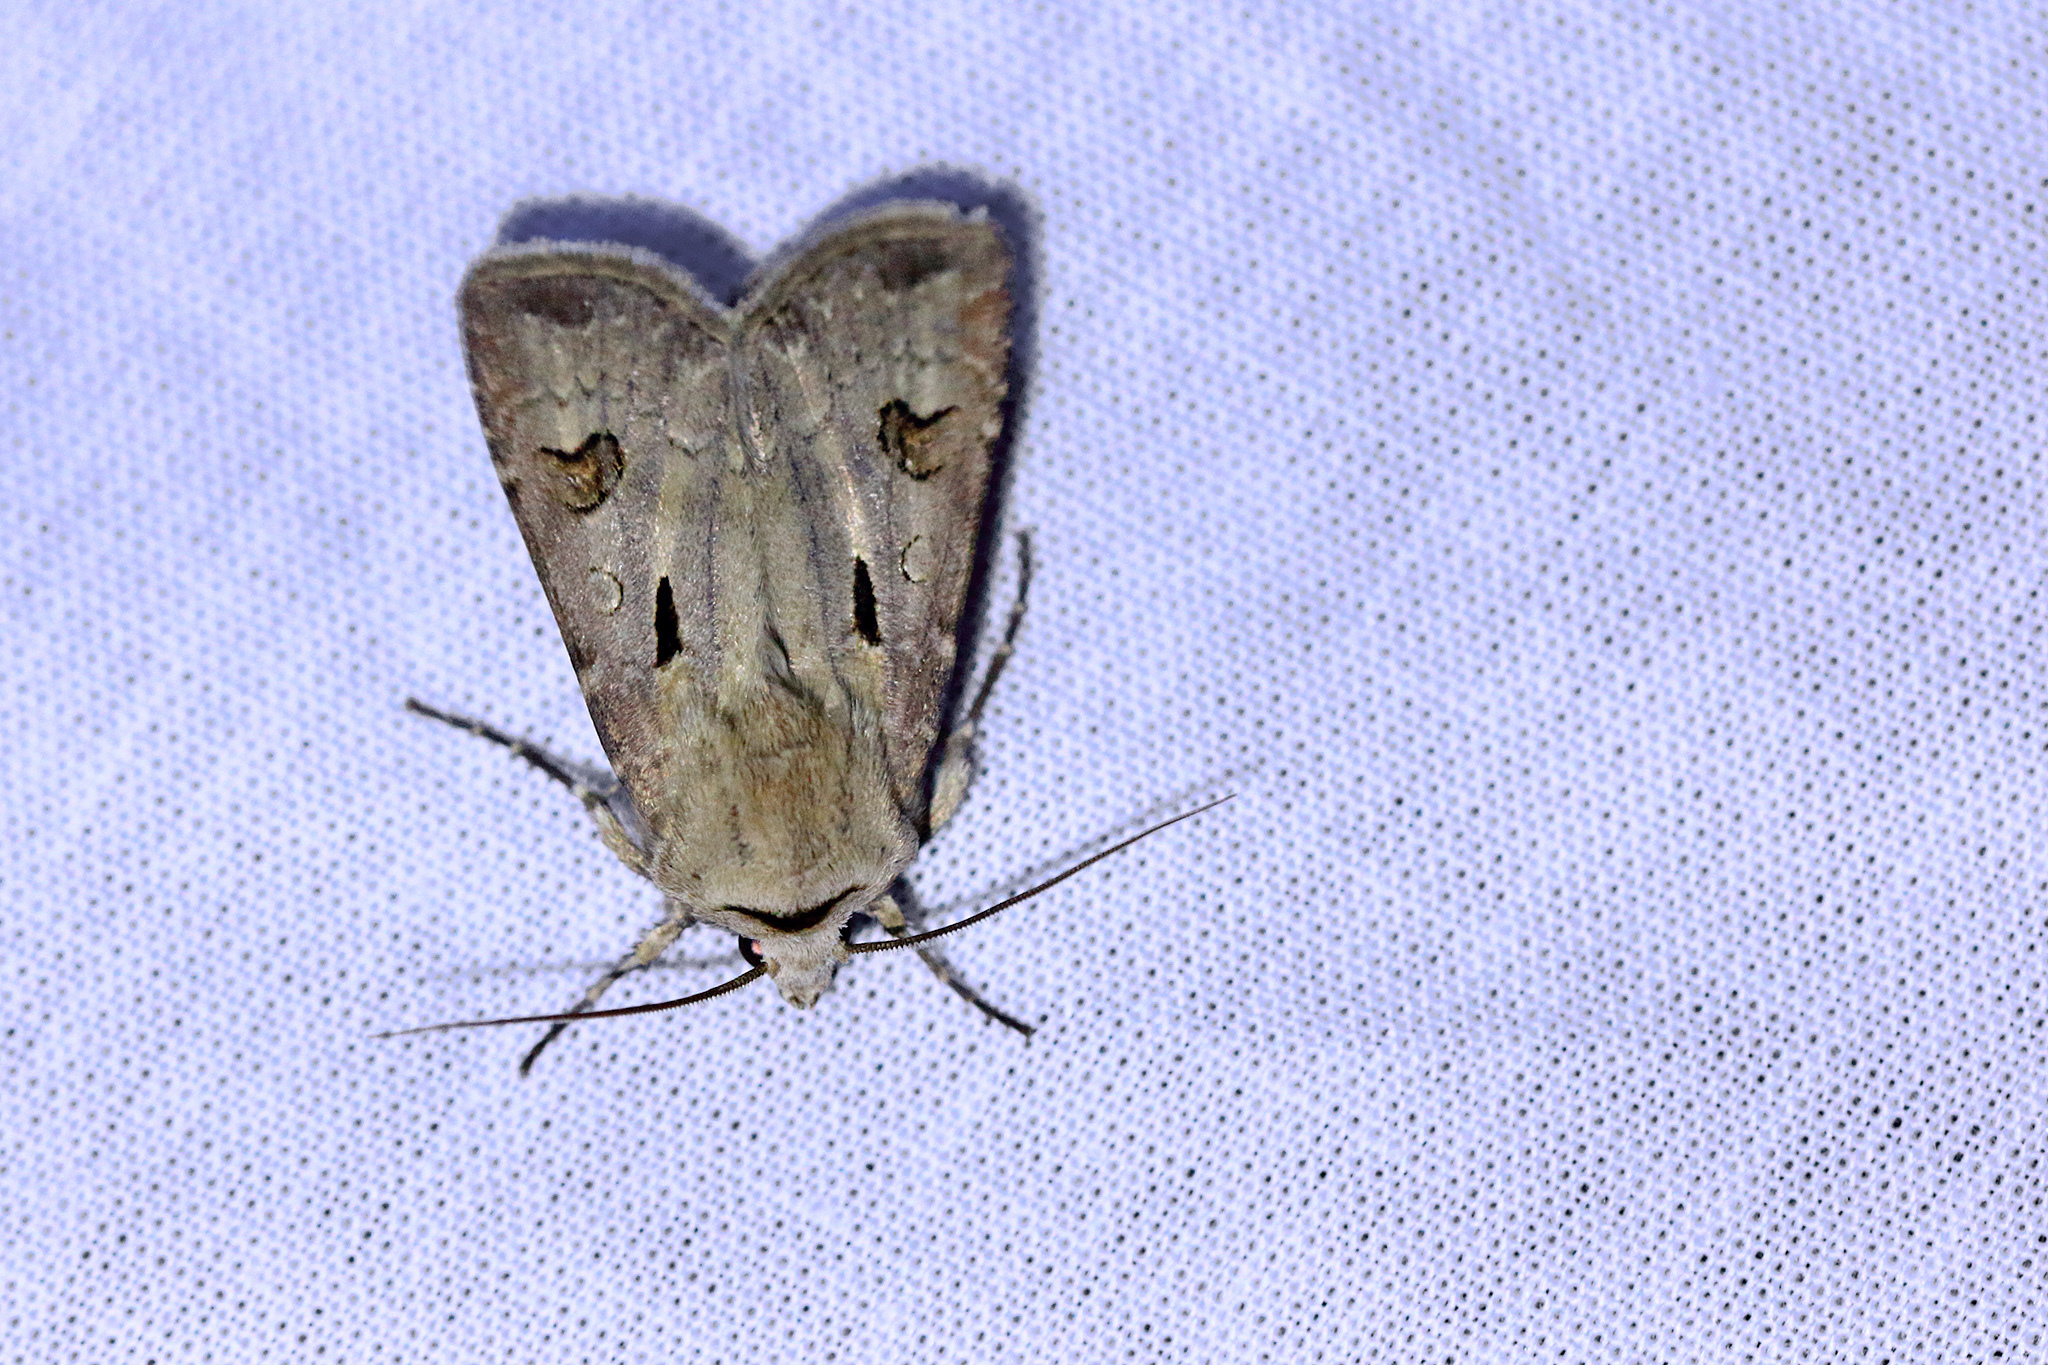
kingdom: Animalia
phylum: Arthropoda
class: Insecta
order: Lepidoptera
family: Noctuidae
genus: Agrotis
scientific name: Agrotis exclamationis
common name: Heart and dart
